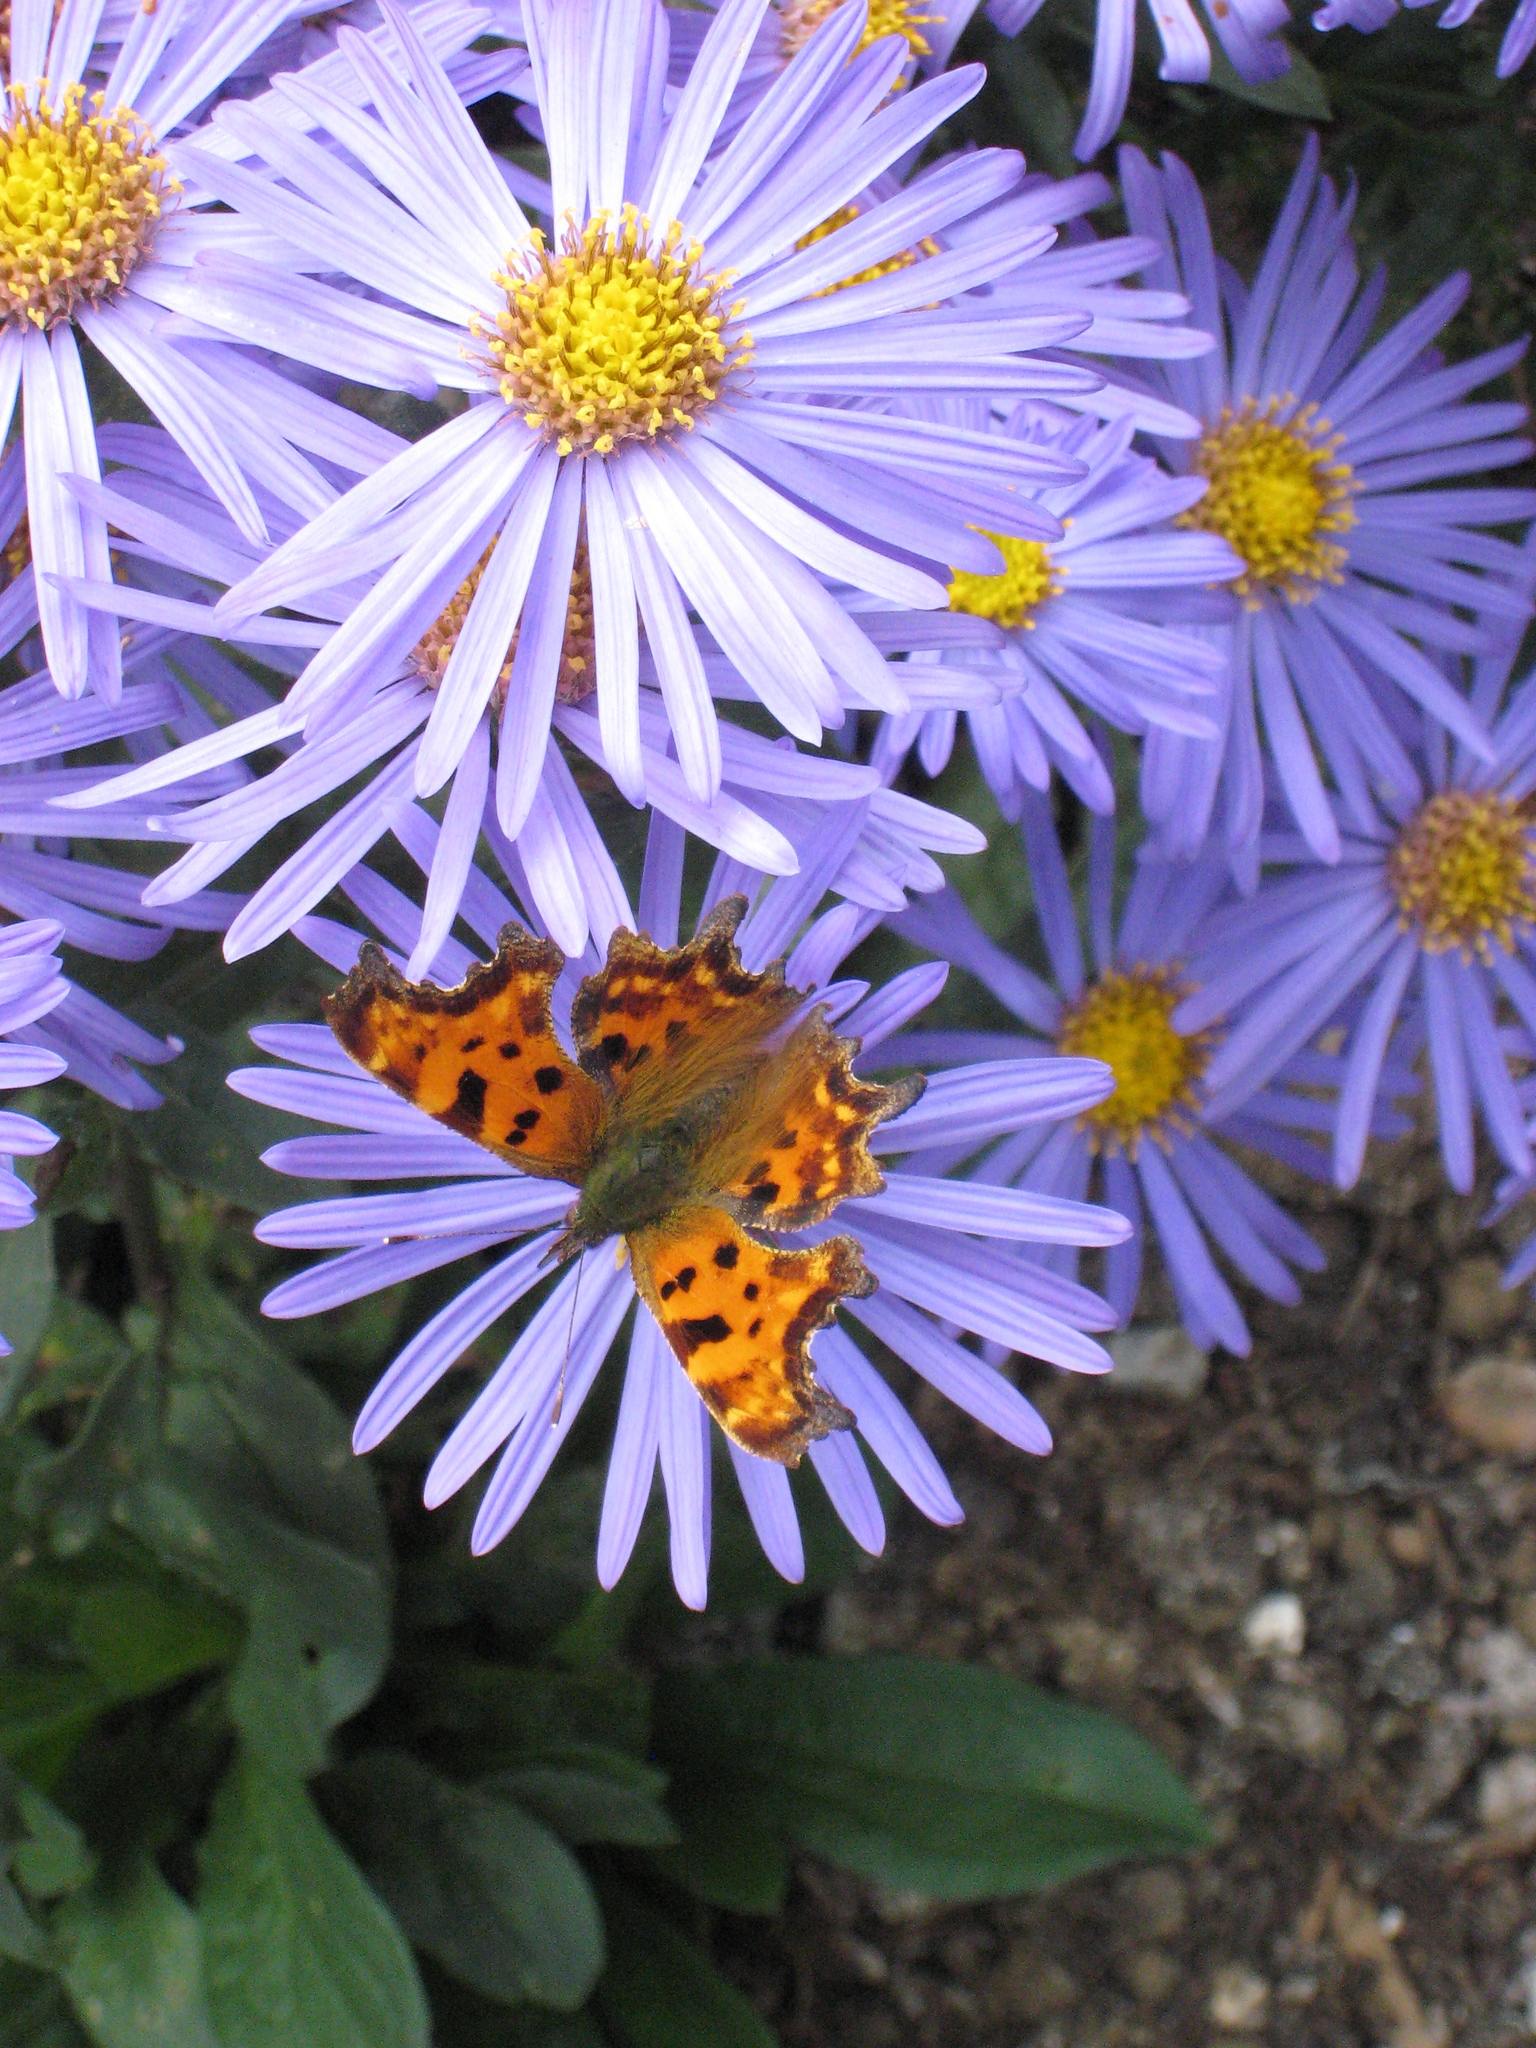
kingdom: Animalia
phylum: Arthropoda
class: Insecta
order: Lepidoptera
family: Nymphalidae
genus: Polygonia
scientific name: Polygonia c-album
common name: Comma
